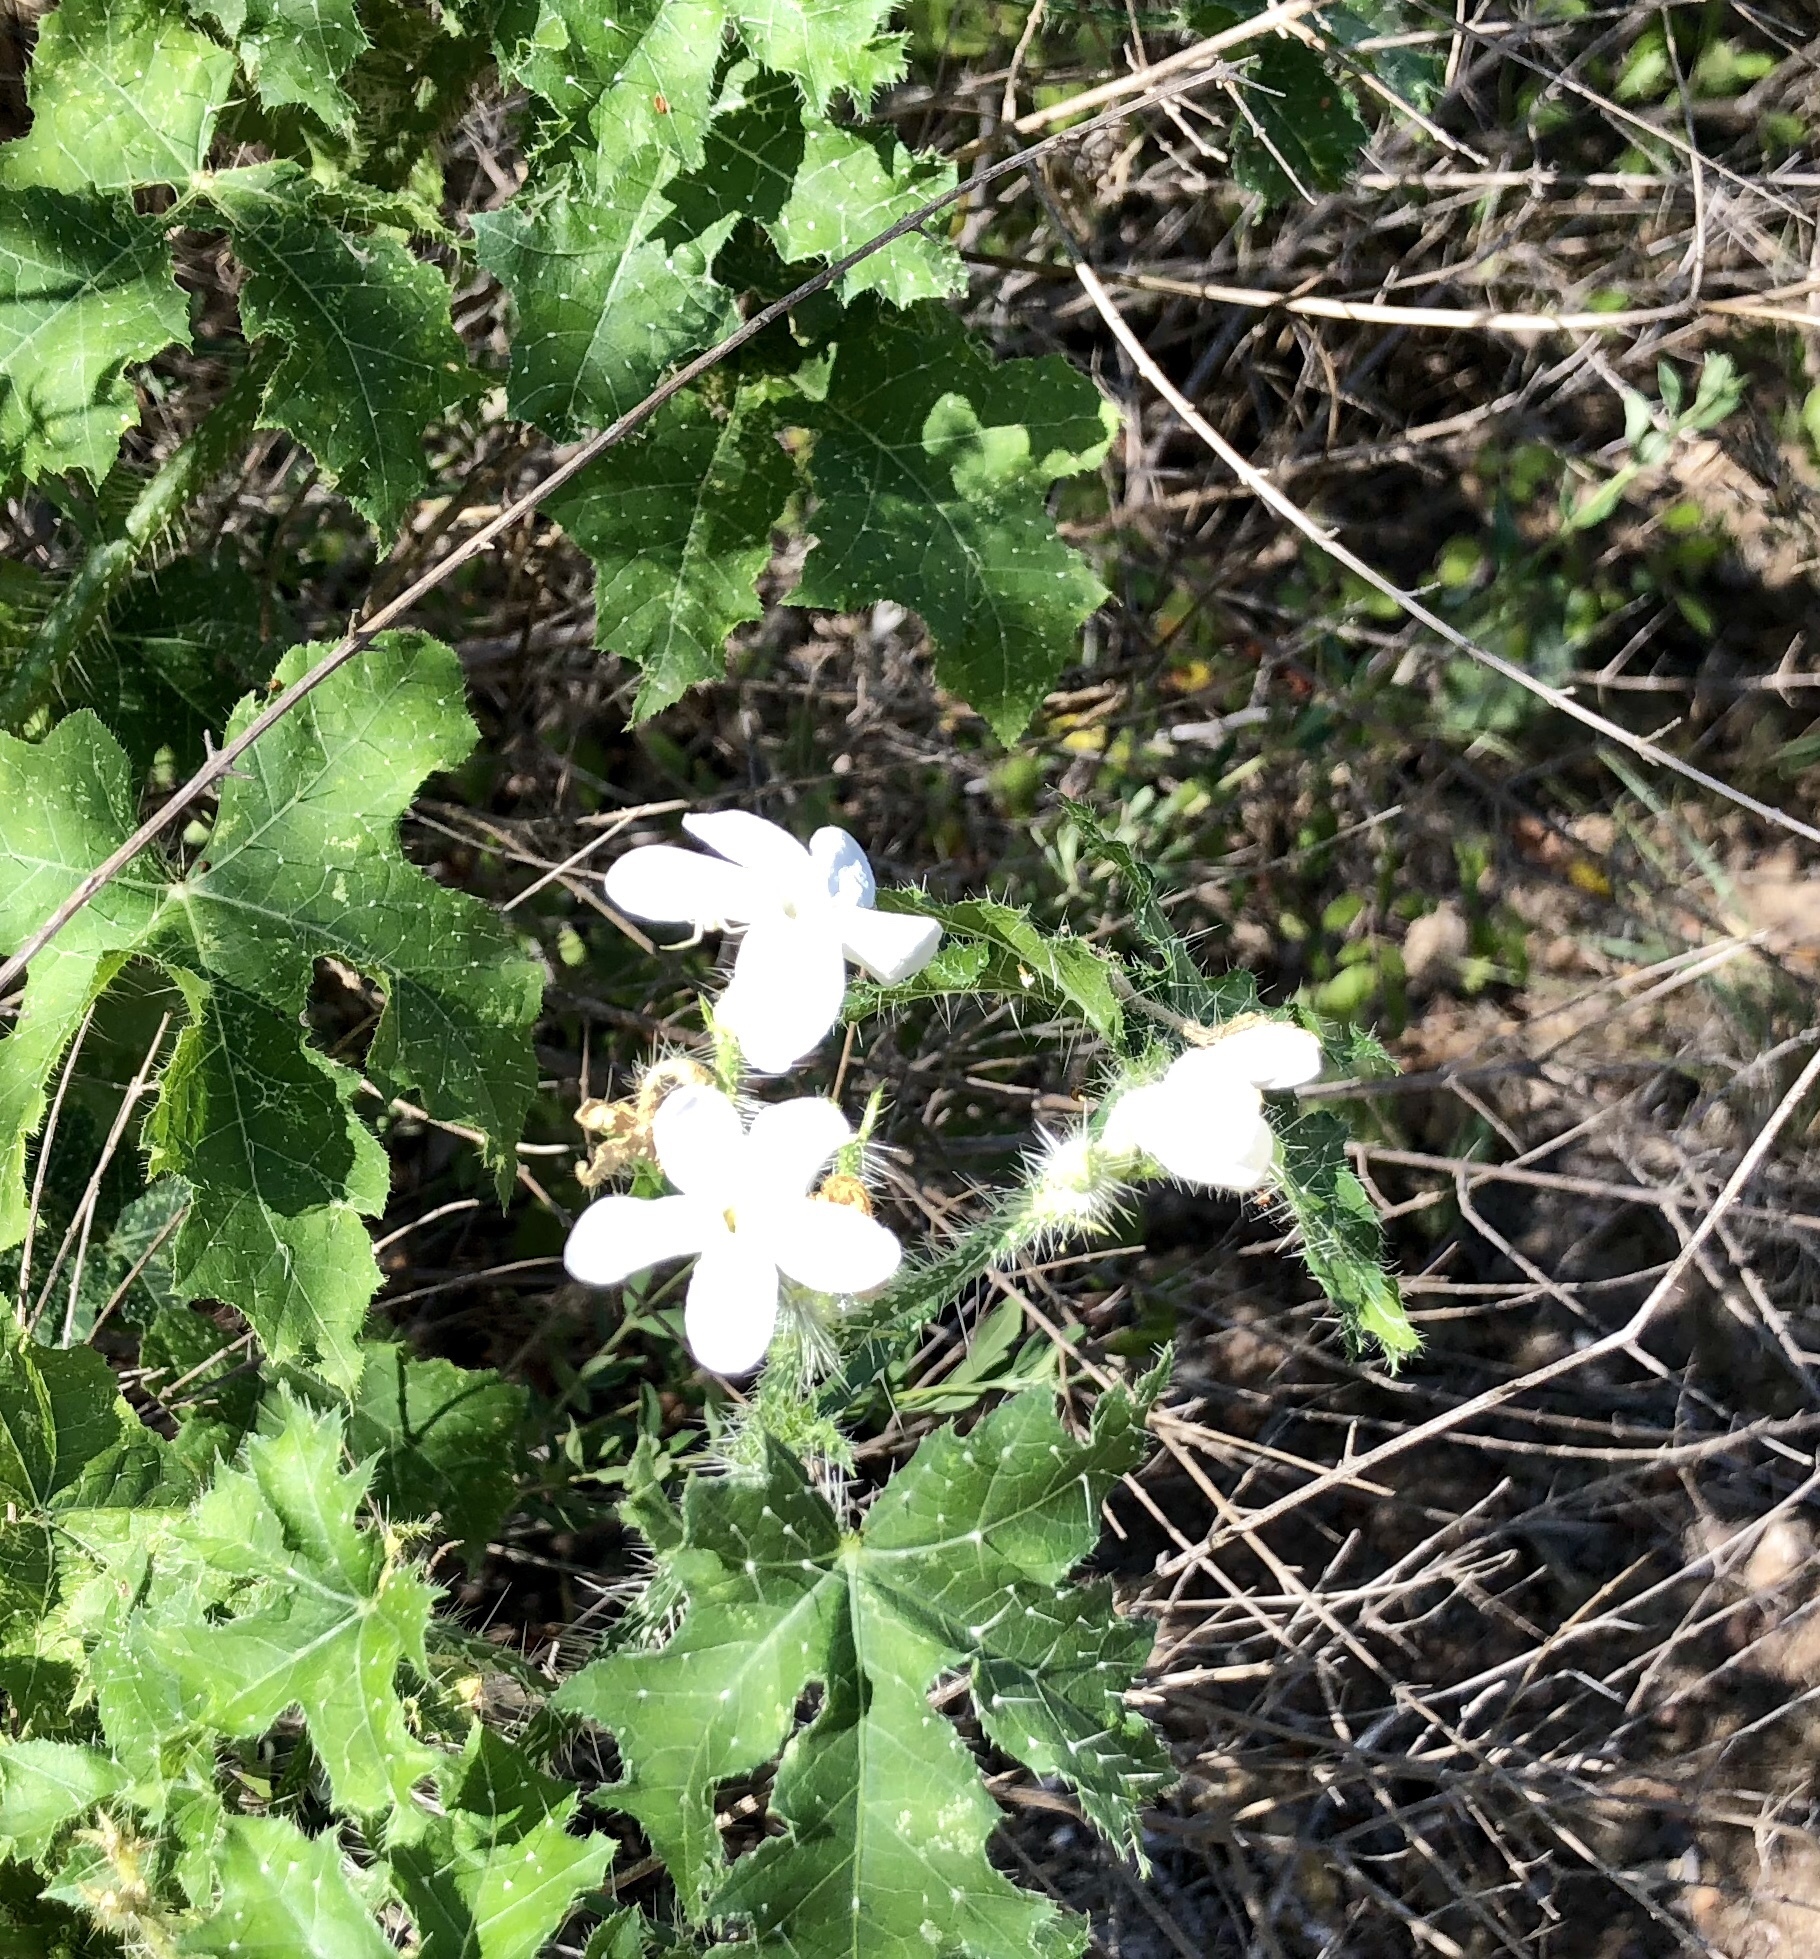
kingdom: Plantae
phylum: Tracheophyta
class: Magnoliopsida
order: Malpighiales
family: Euphorbiaceae
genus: Cnidoscolus
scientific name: Cnidoscolus texanus
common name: Texas bull-nettle
